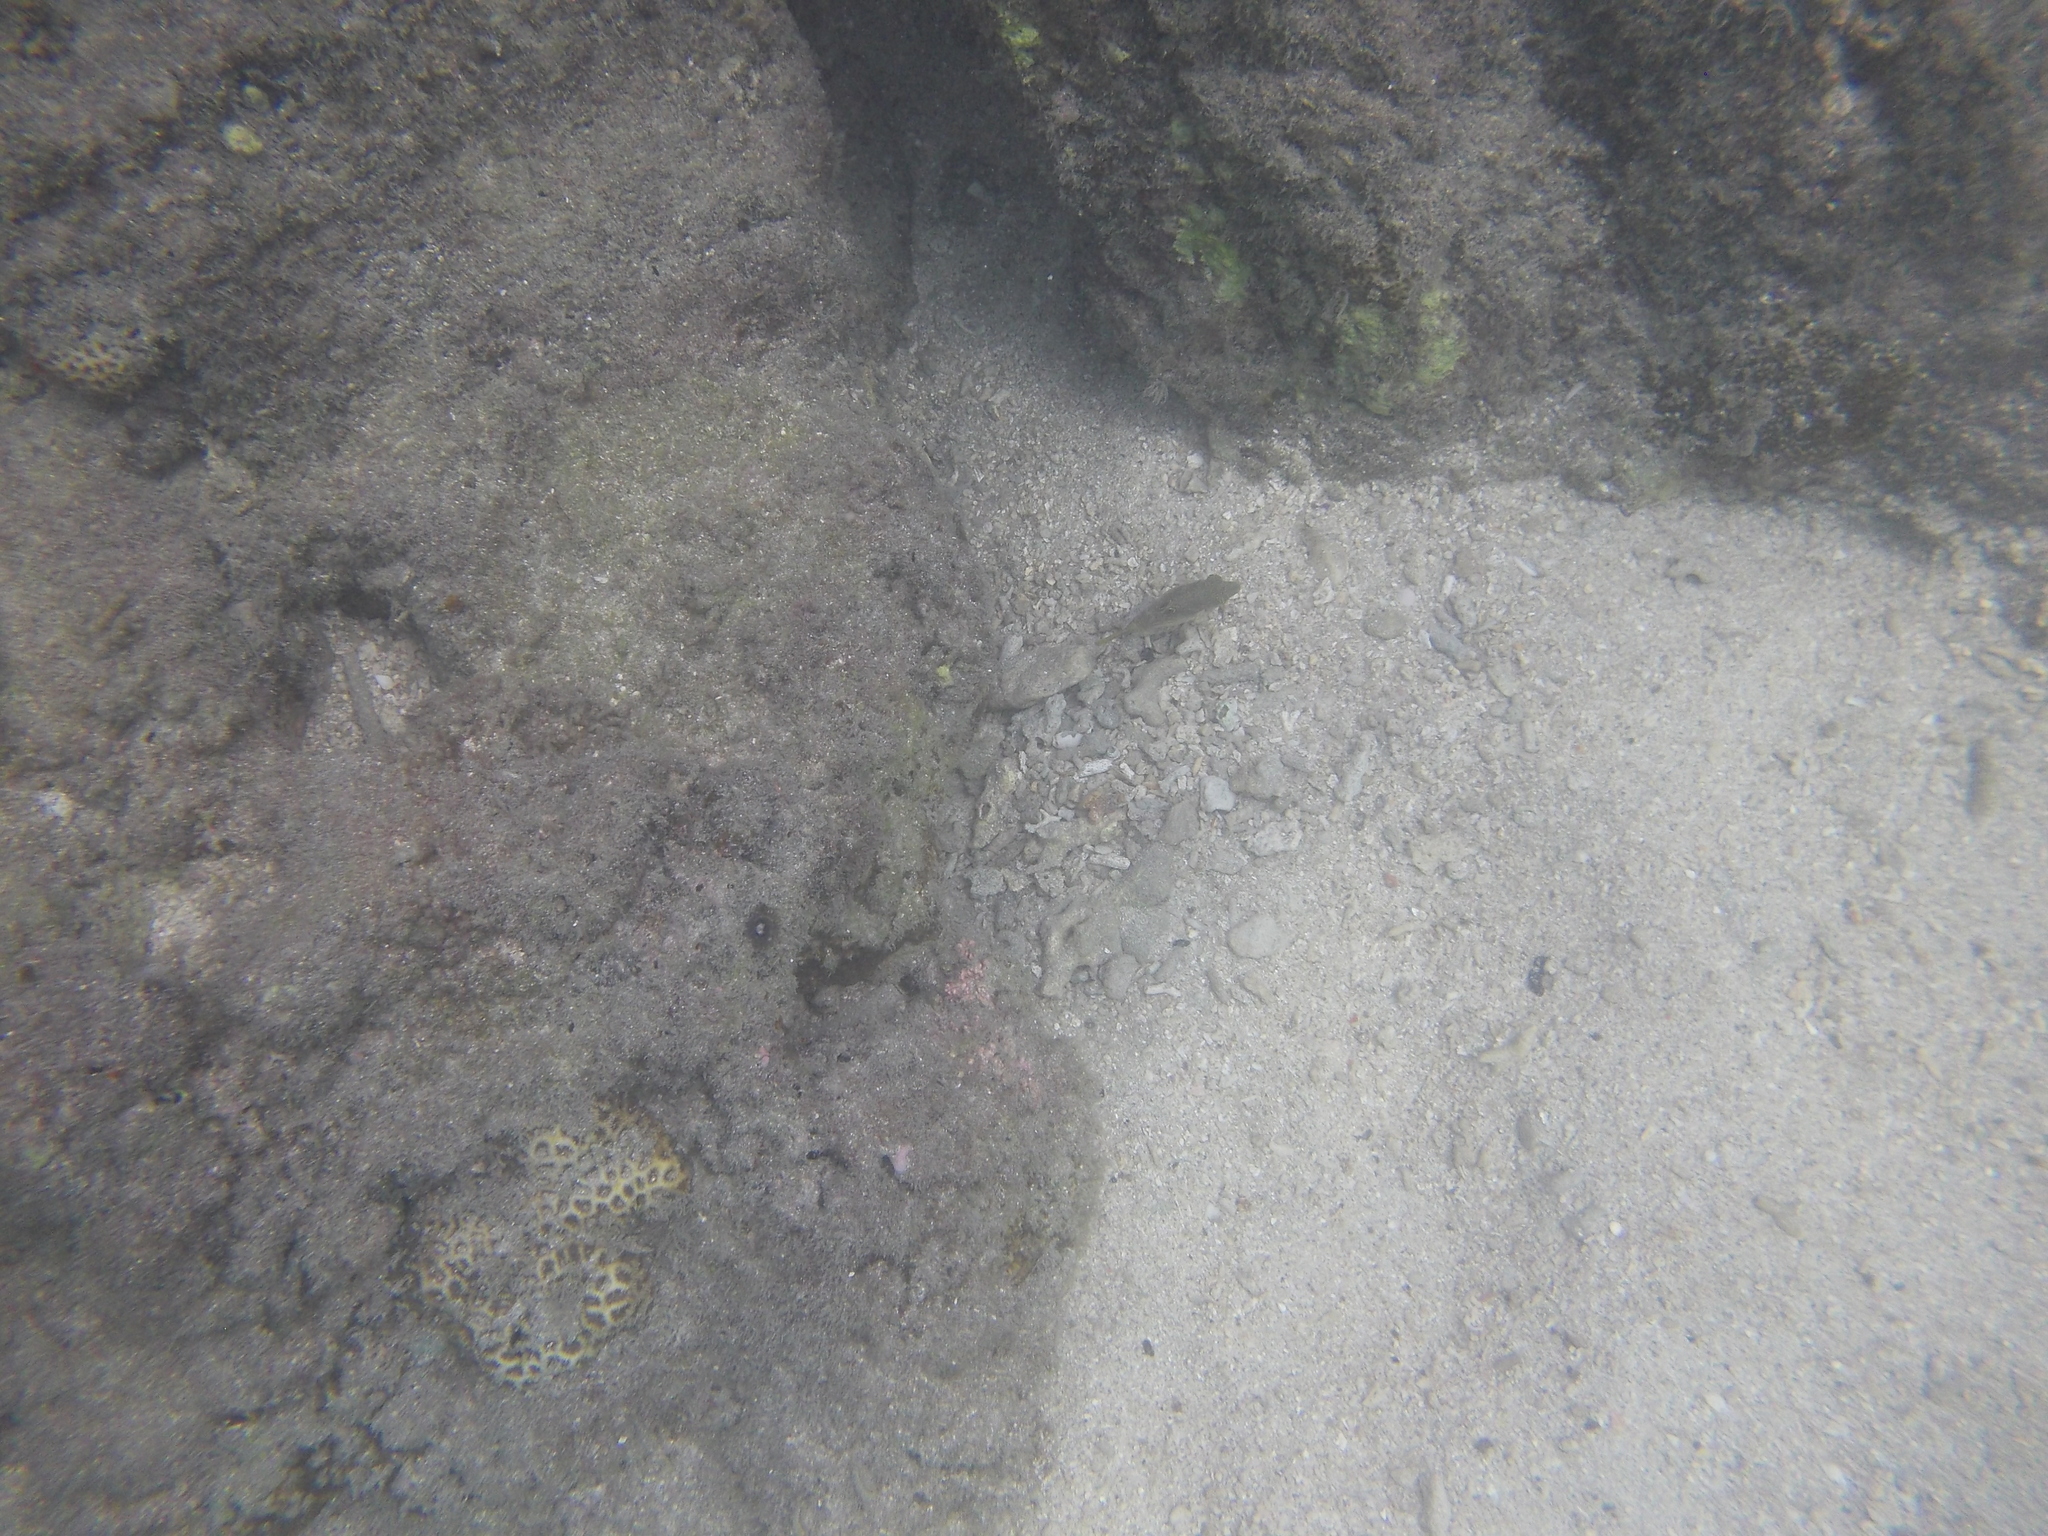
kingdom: Animalia
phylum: Chordata
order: Tetraodontiformes
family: Tetraodontidae
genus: Canthigaster
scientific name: Canthigaster bennetti
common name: Bennett's pufferfish
